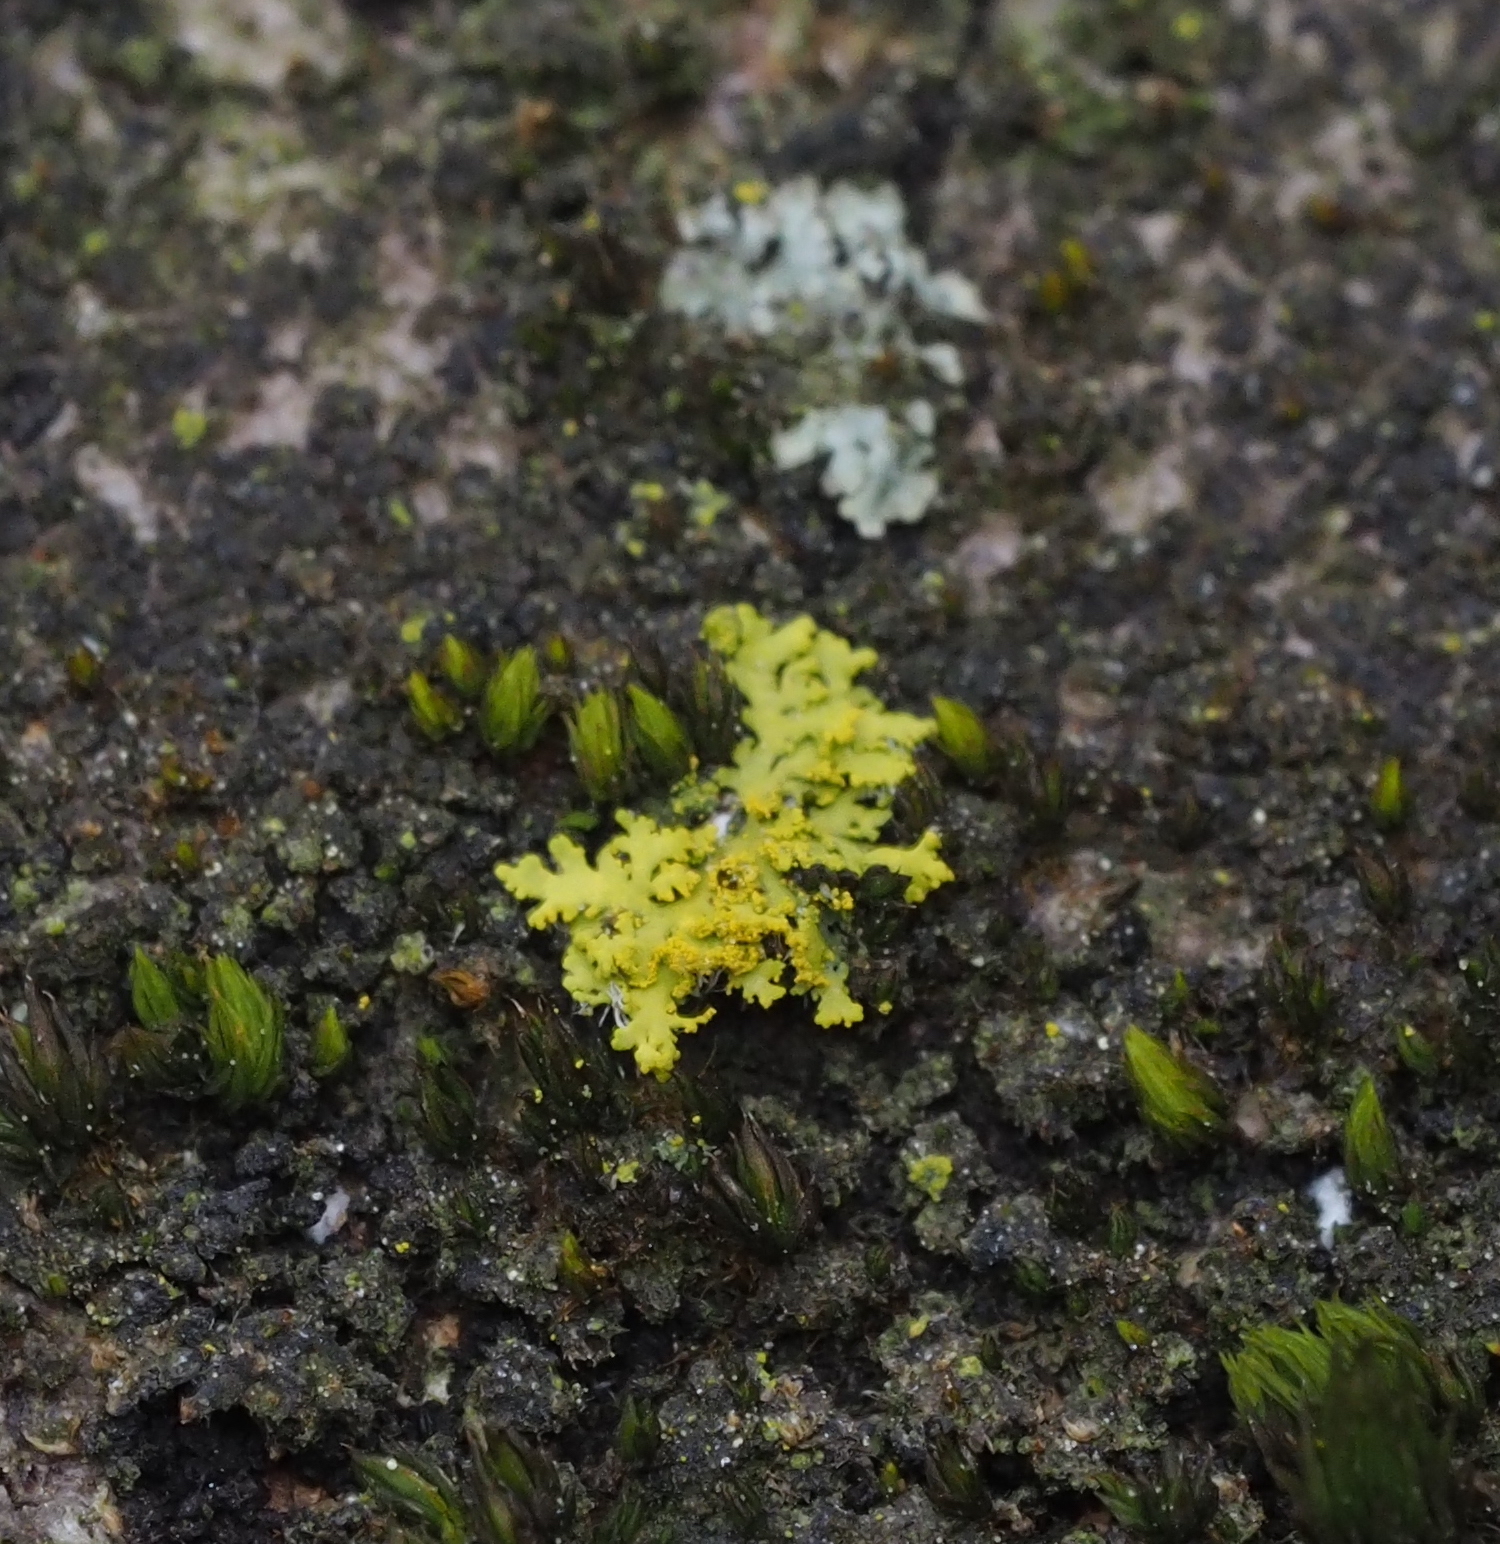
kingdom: Fungi
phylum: Ascomycota
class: Candelariomycetes
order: Candelariales
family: Candelariaceae
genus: Candelaria
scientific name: Candelaria concolor
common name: Candleflame lichen
